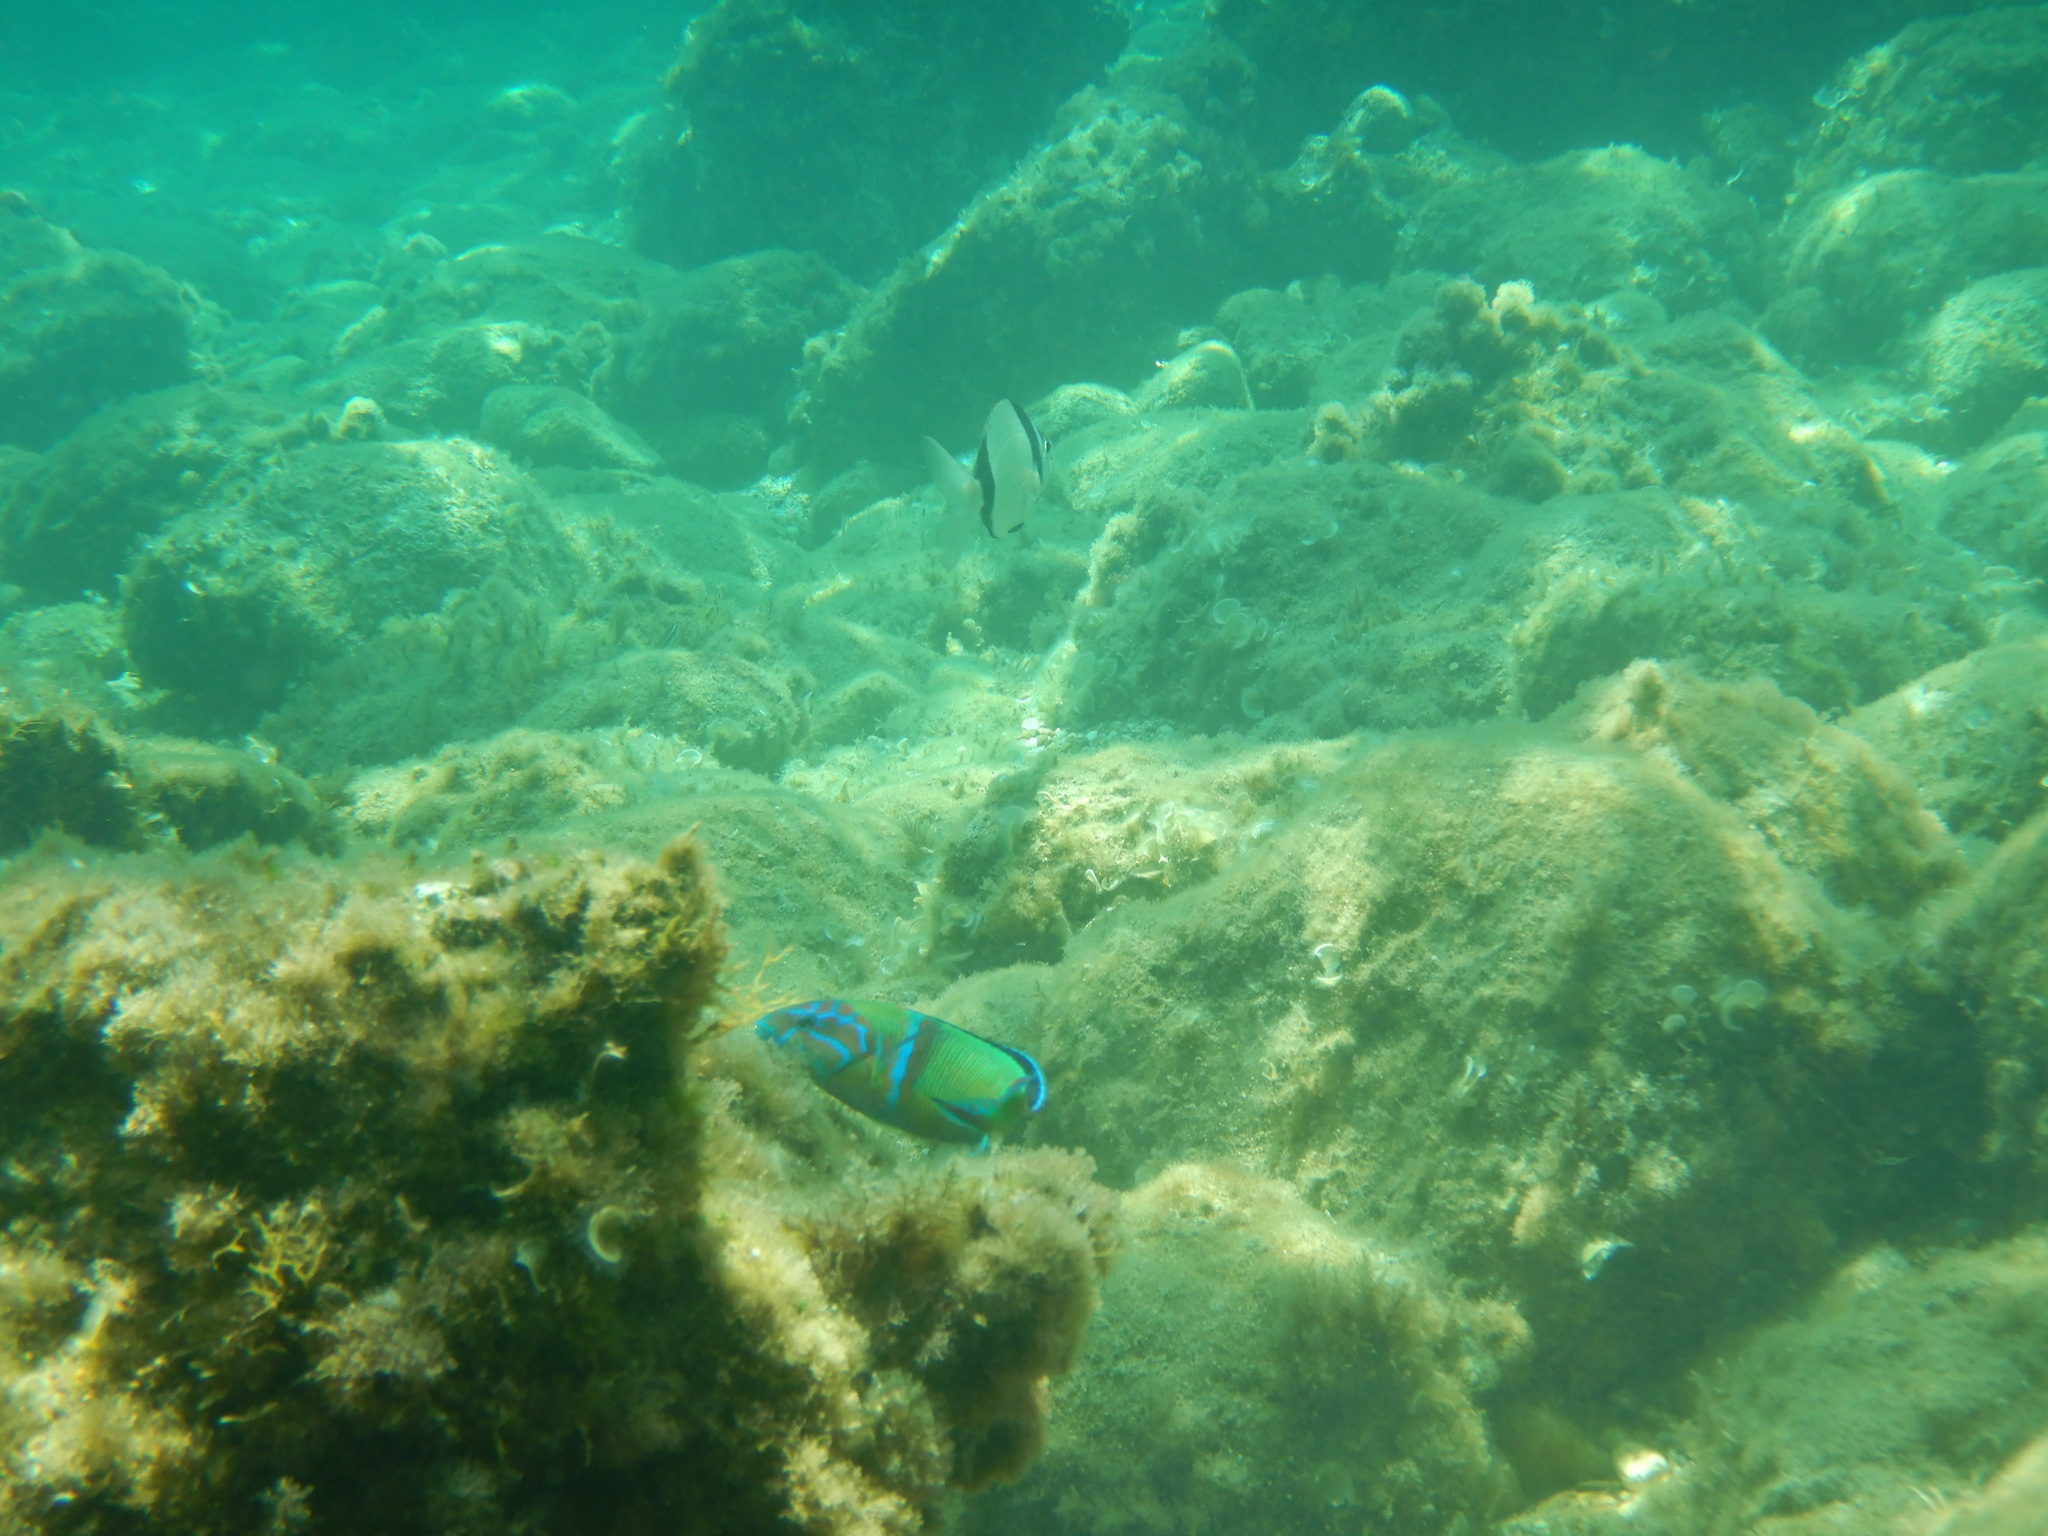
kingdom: Animalia
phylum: Chordata
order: Perciformes
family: Sparidae
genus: Diplodus
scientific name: Diplodus vulgaris
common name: Common two-banded seabream
